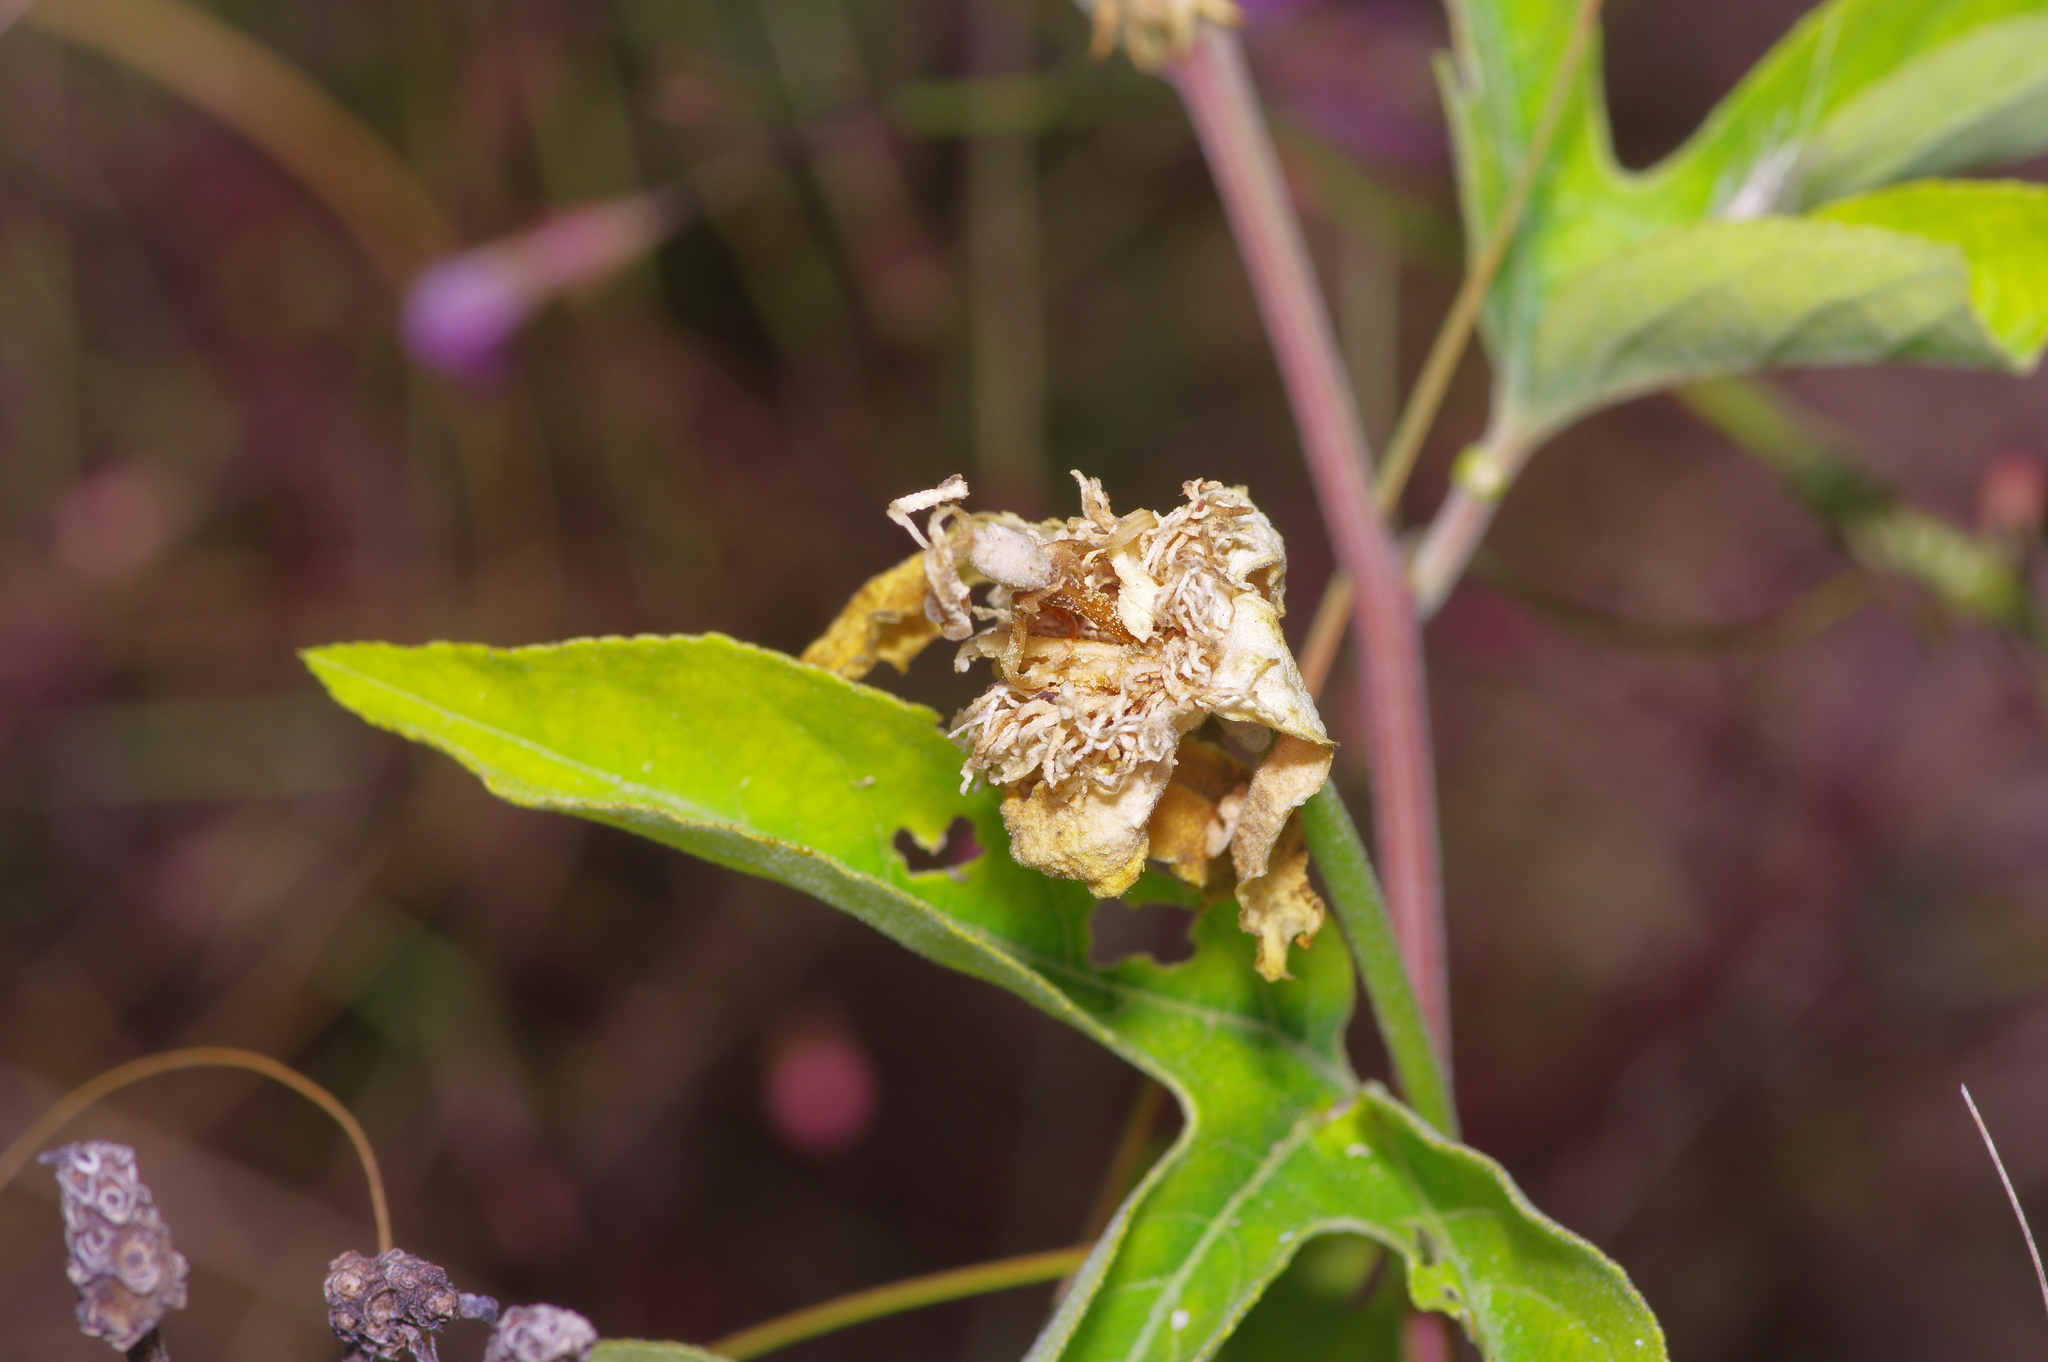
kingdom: Plantae
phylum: Tracheophyta
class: Magnoliopsida
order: Malpighiales
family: Passifloraceae
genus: Passiflora
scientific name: Passiflora incarnata
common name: Apricot-vine
